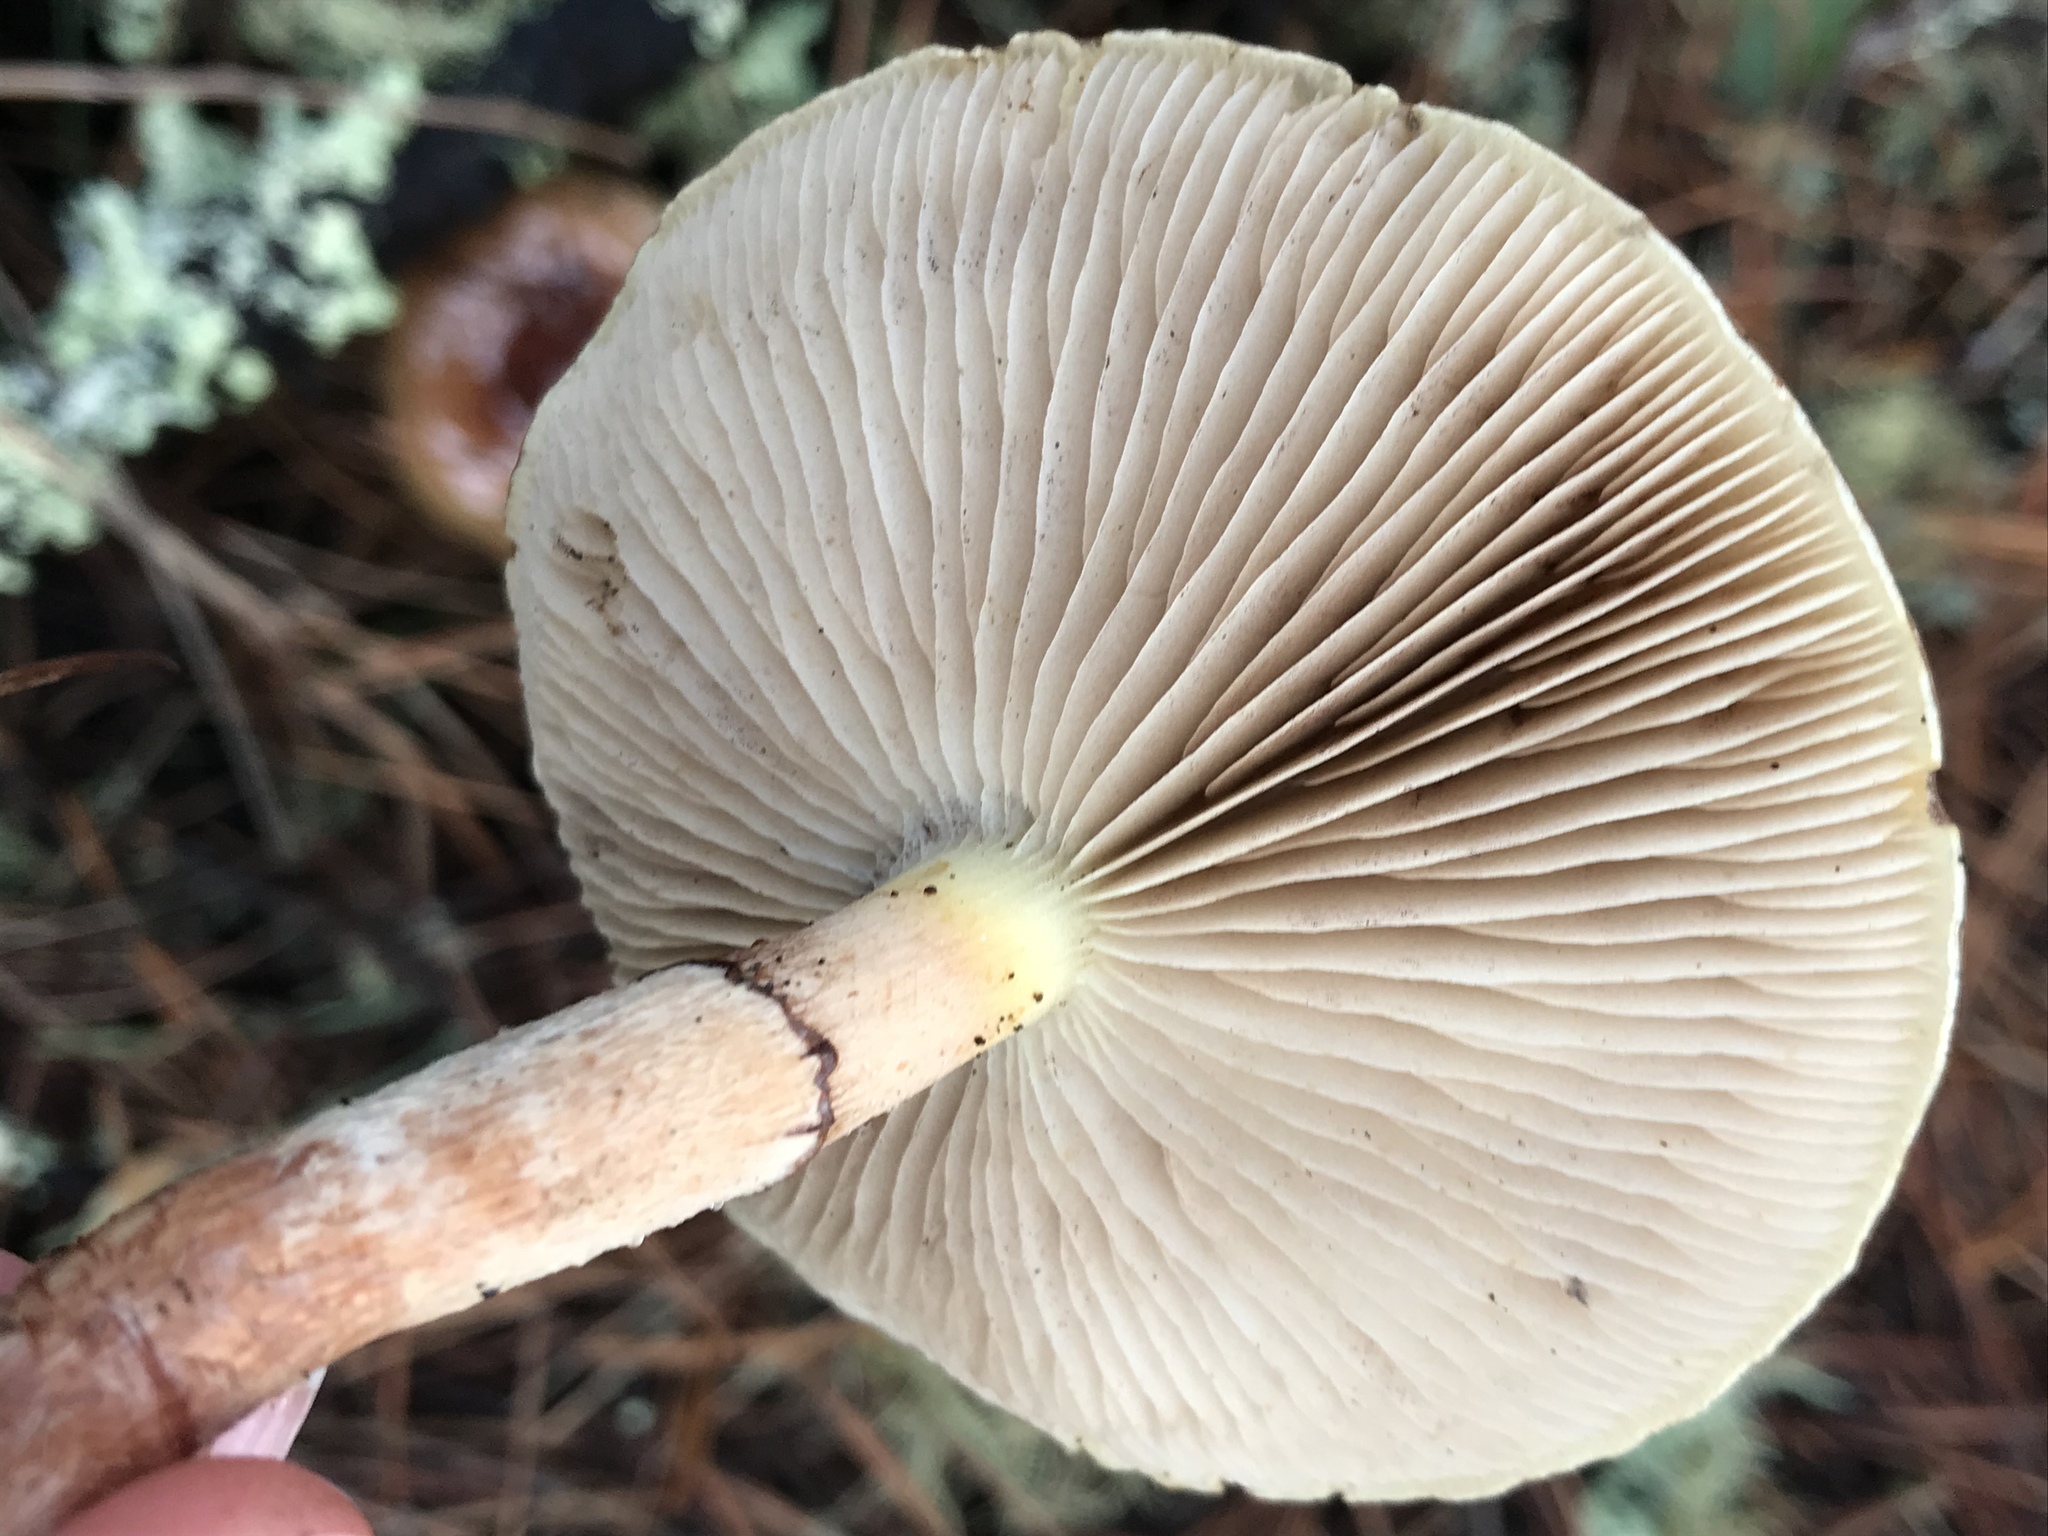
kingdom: Fungi
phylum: Basidiomycota
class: Agaricomycetes
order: Agaricales
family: Strophariaceae
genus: Pholiota
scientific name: Pholiota velaglutinosa
